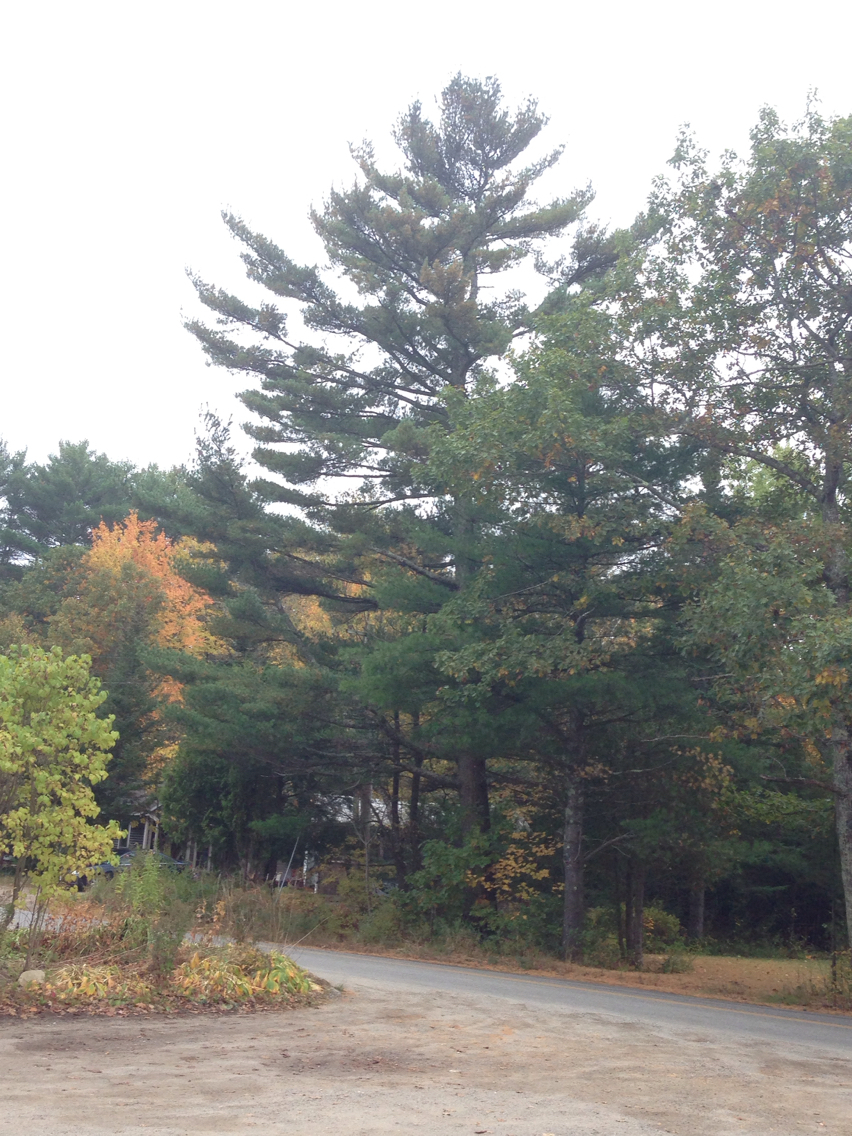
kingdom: Plantae
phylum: Tracheophyta
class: Pinopsida
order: Pinales
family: Pinaceae
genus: Pinus
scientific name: Pinus strobus
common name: Weymouth pine
